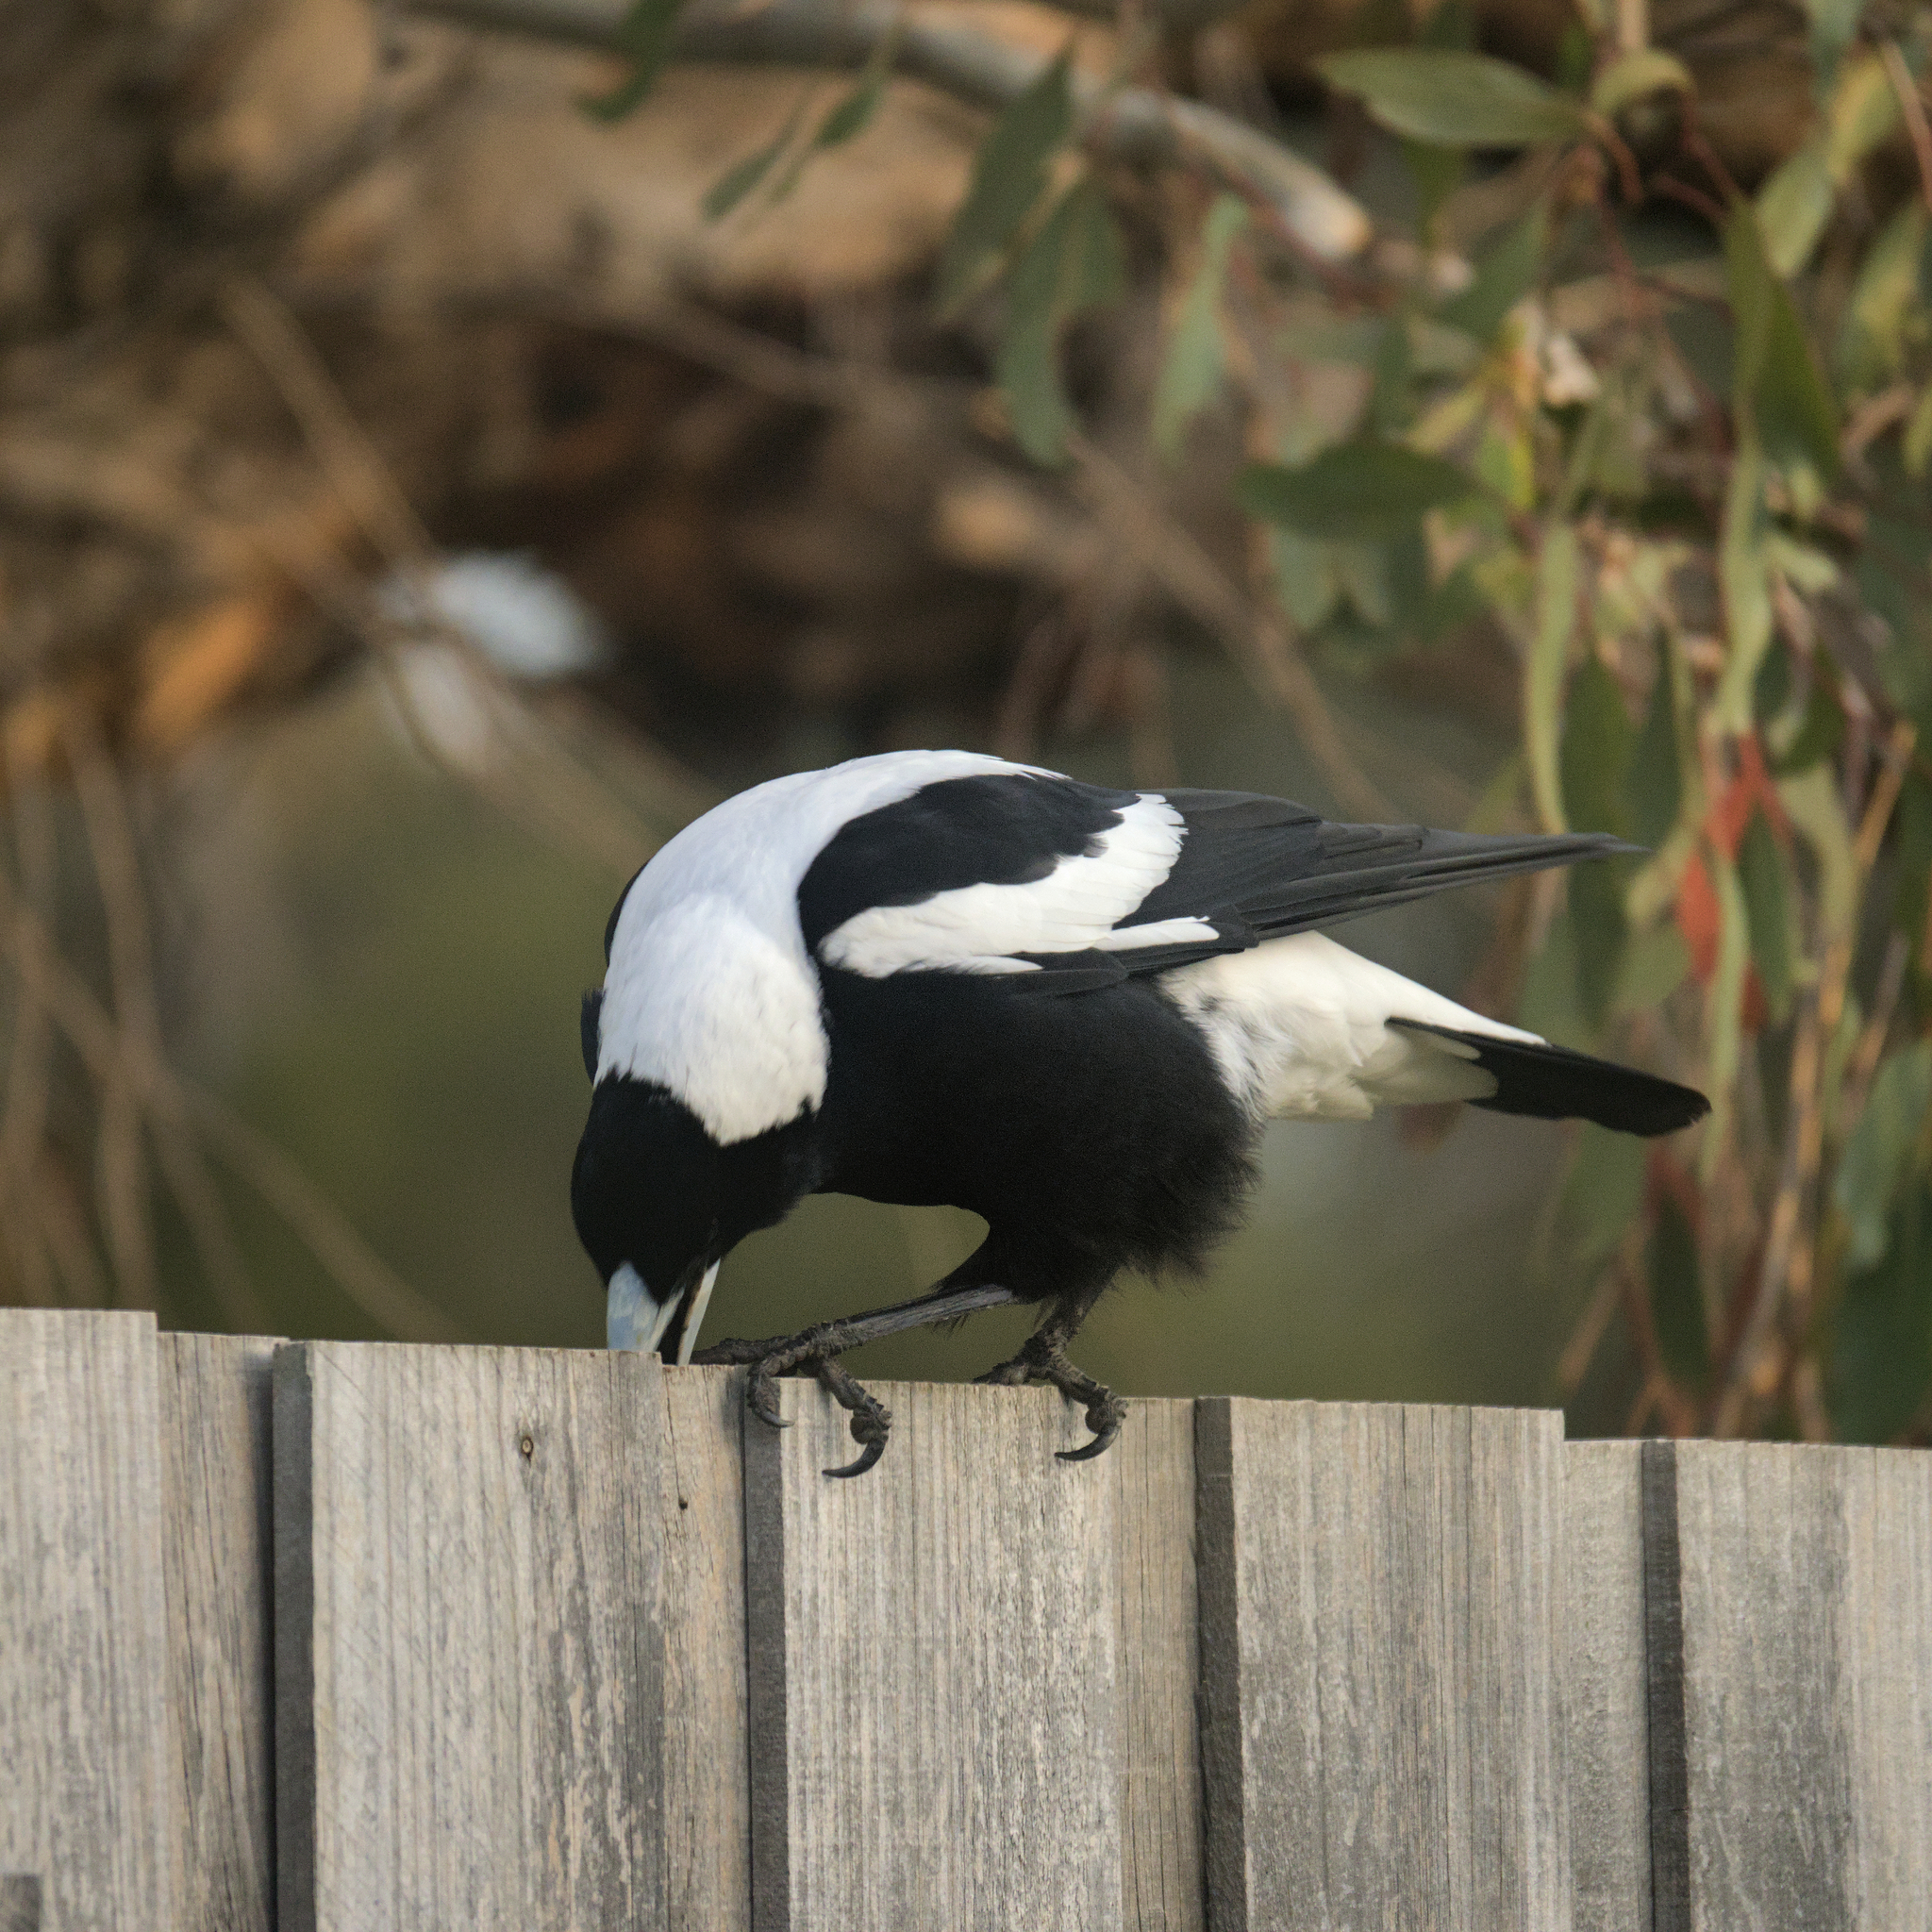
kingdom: Animalia
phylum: Chordata
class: Aves
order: Passeriformes
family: Cracticidae
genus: Gymnorhina
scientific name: Gymnorhina tibicen
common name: Australian magpie
